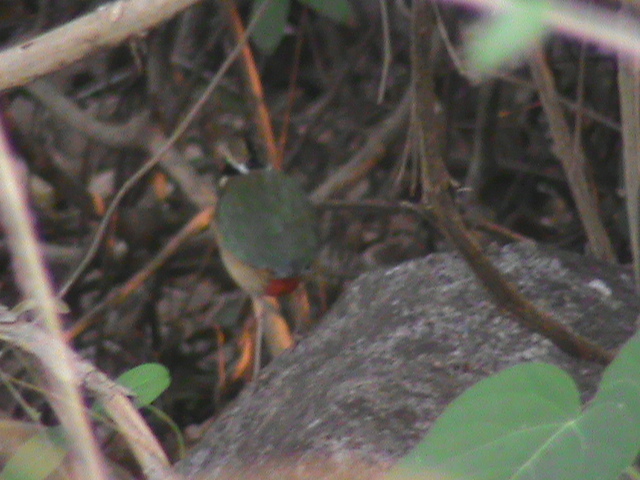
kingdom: Animalia
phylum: Chordata
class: Aves
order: Passeriformes
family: Pittidae
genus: Pitta
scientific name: Pitta brachyura
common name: Indian pitta
